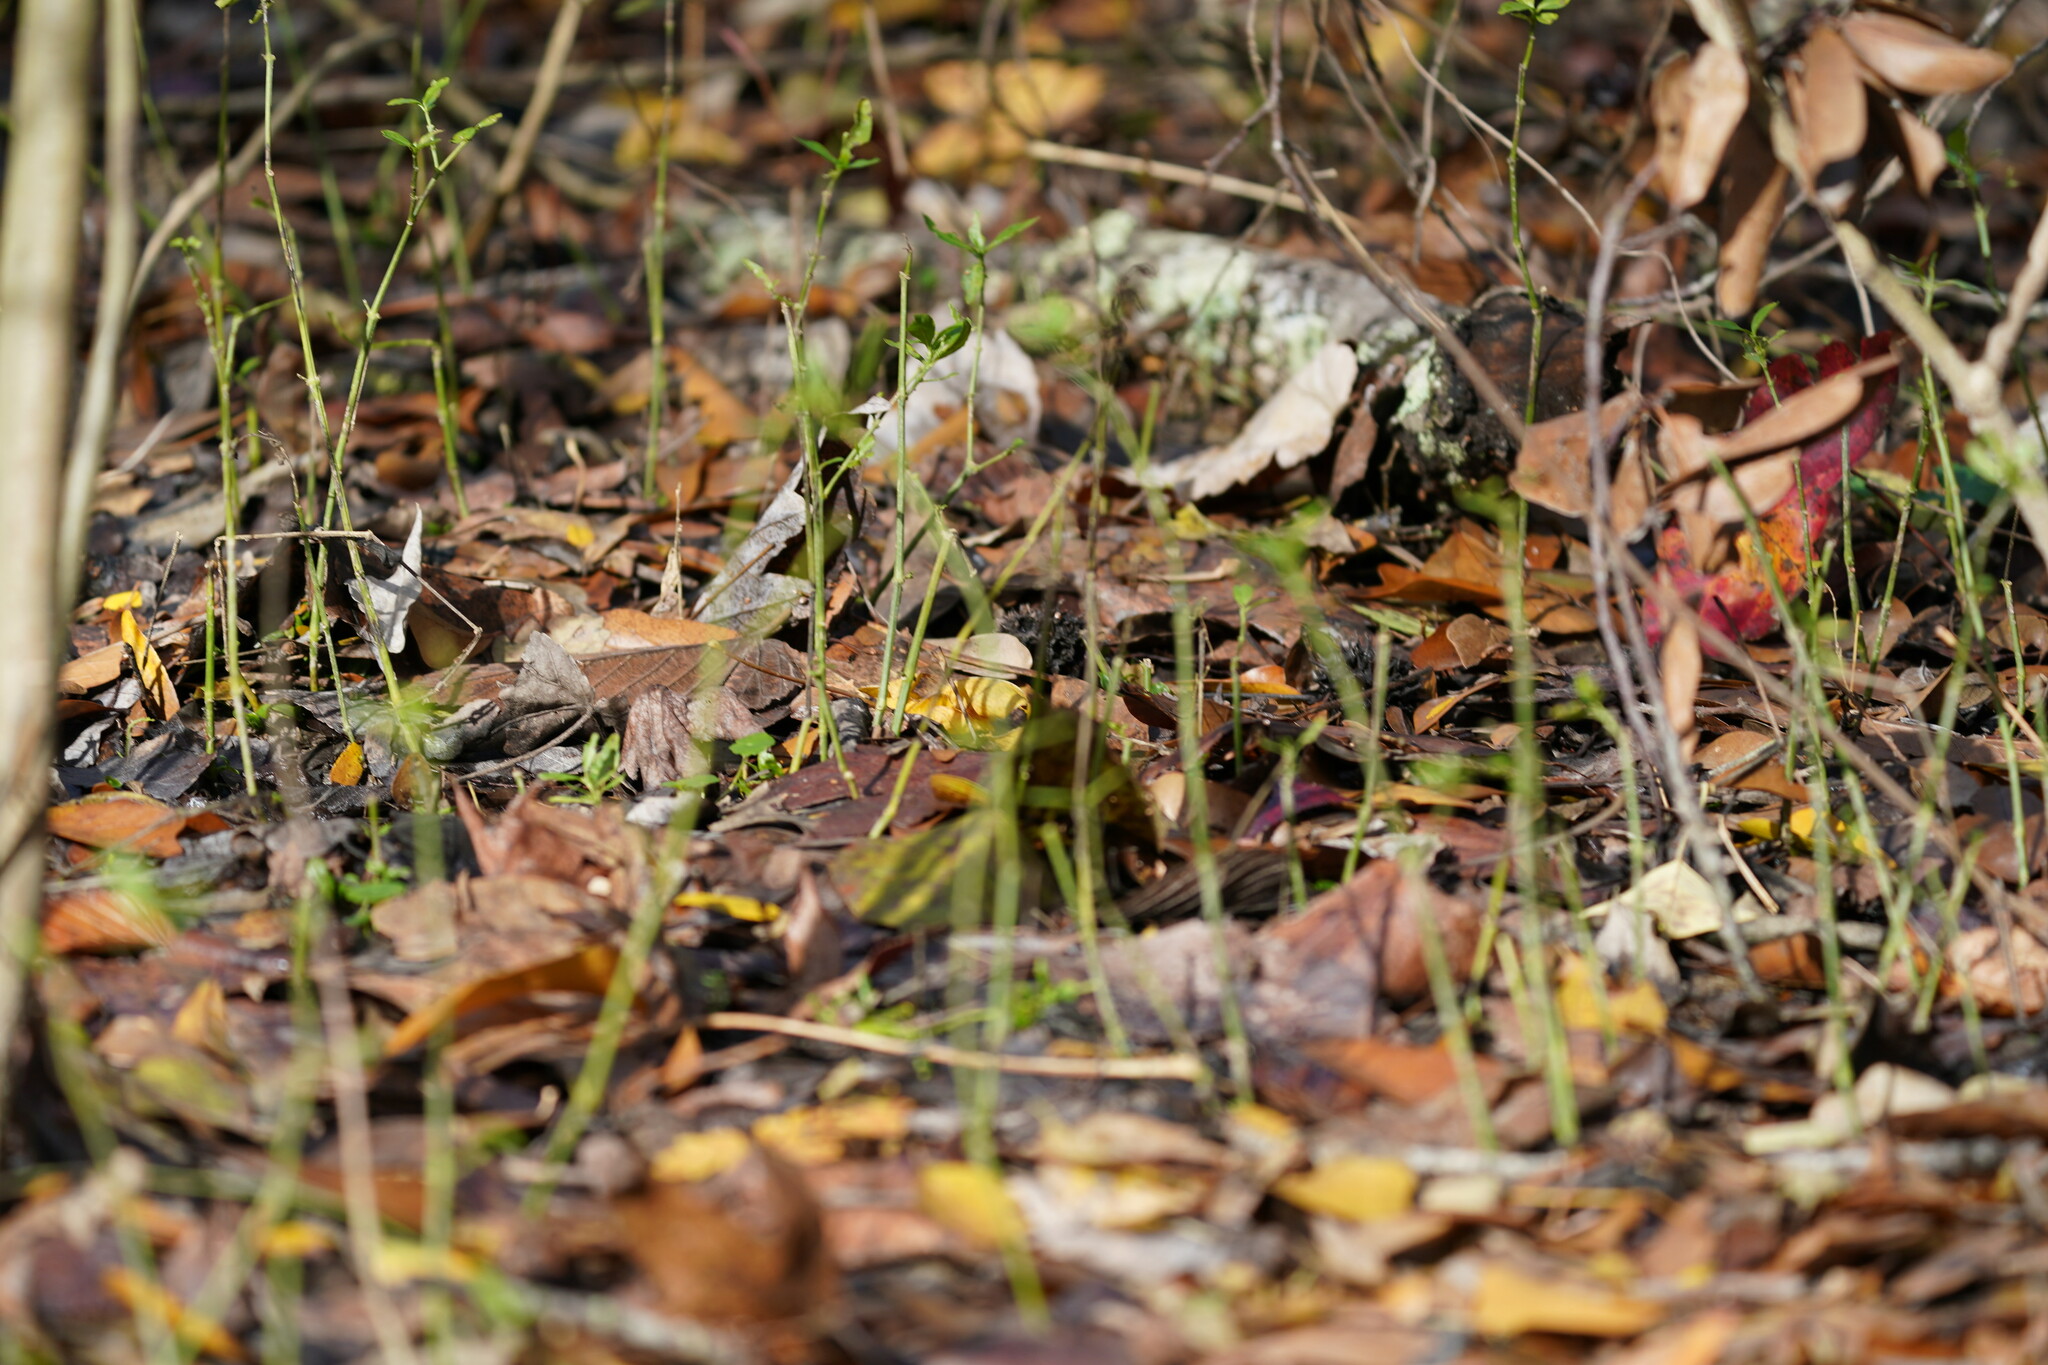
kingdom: Plantae
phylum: Tracheophyta
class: Magnoliopsida
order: Lamiales
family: Acanthaceae
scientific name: Acanthaceae
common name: Acanthaceae
